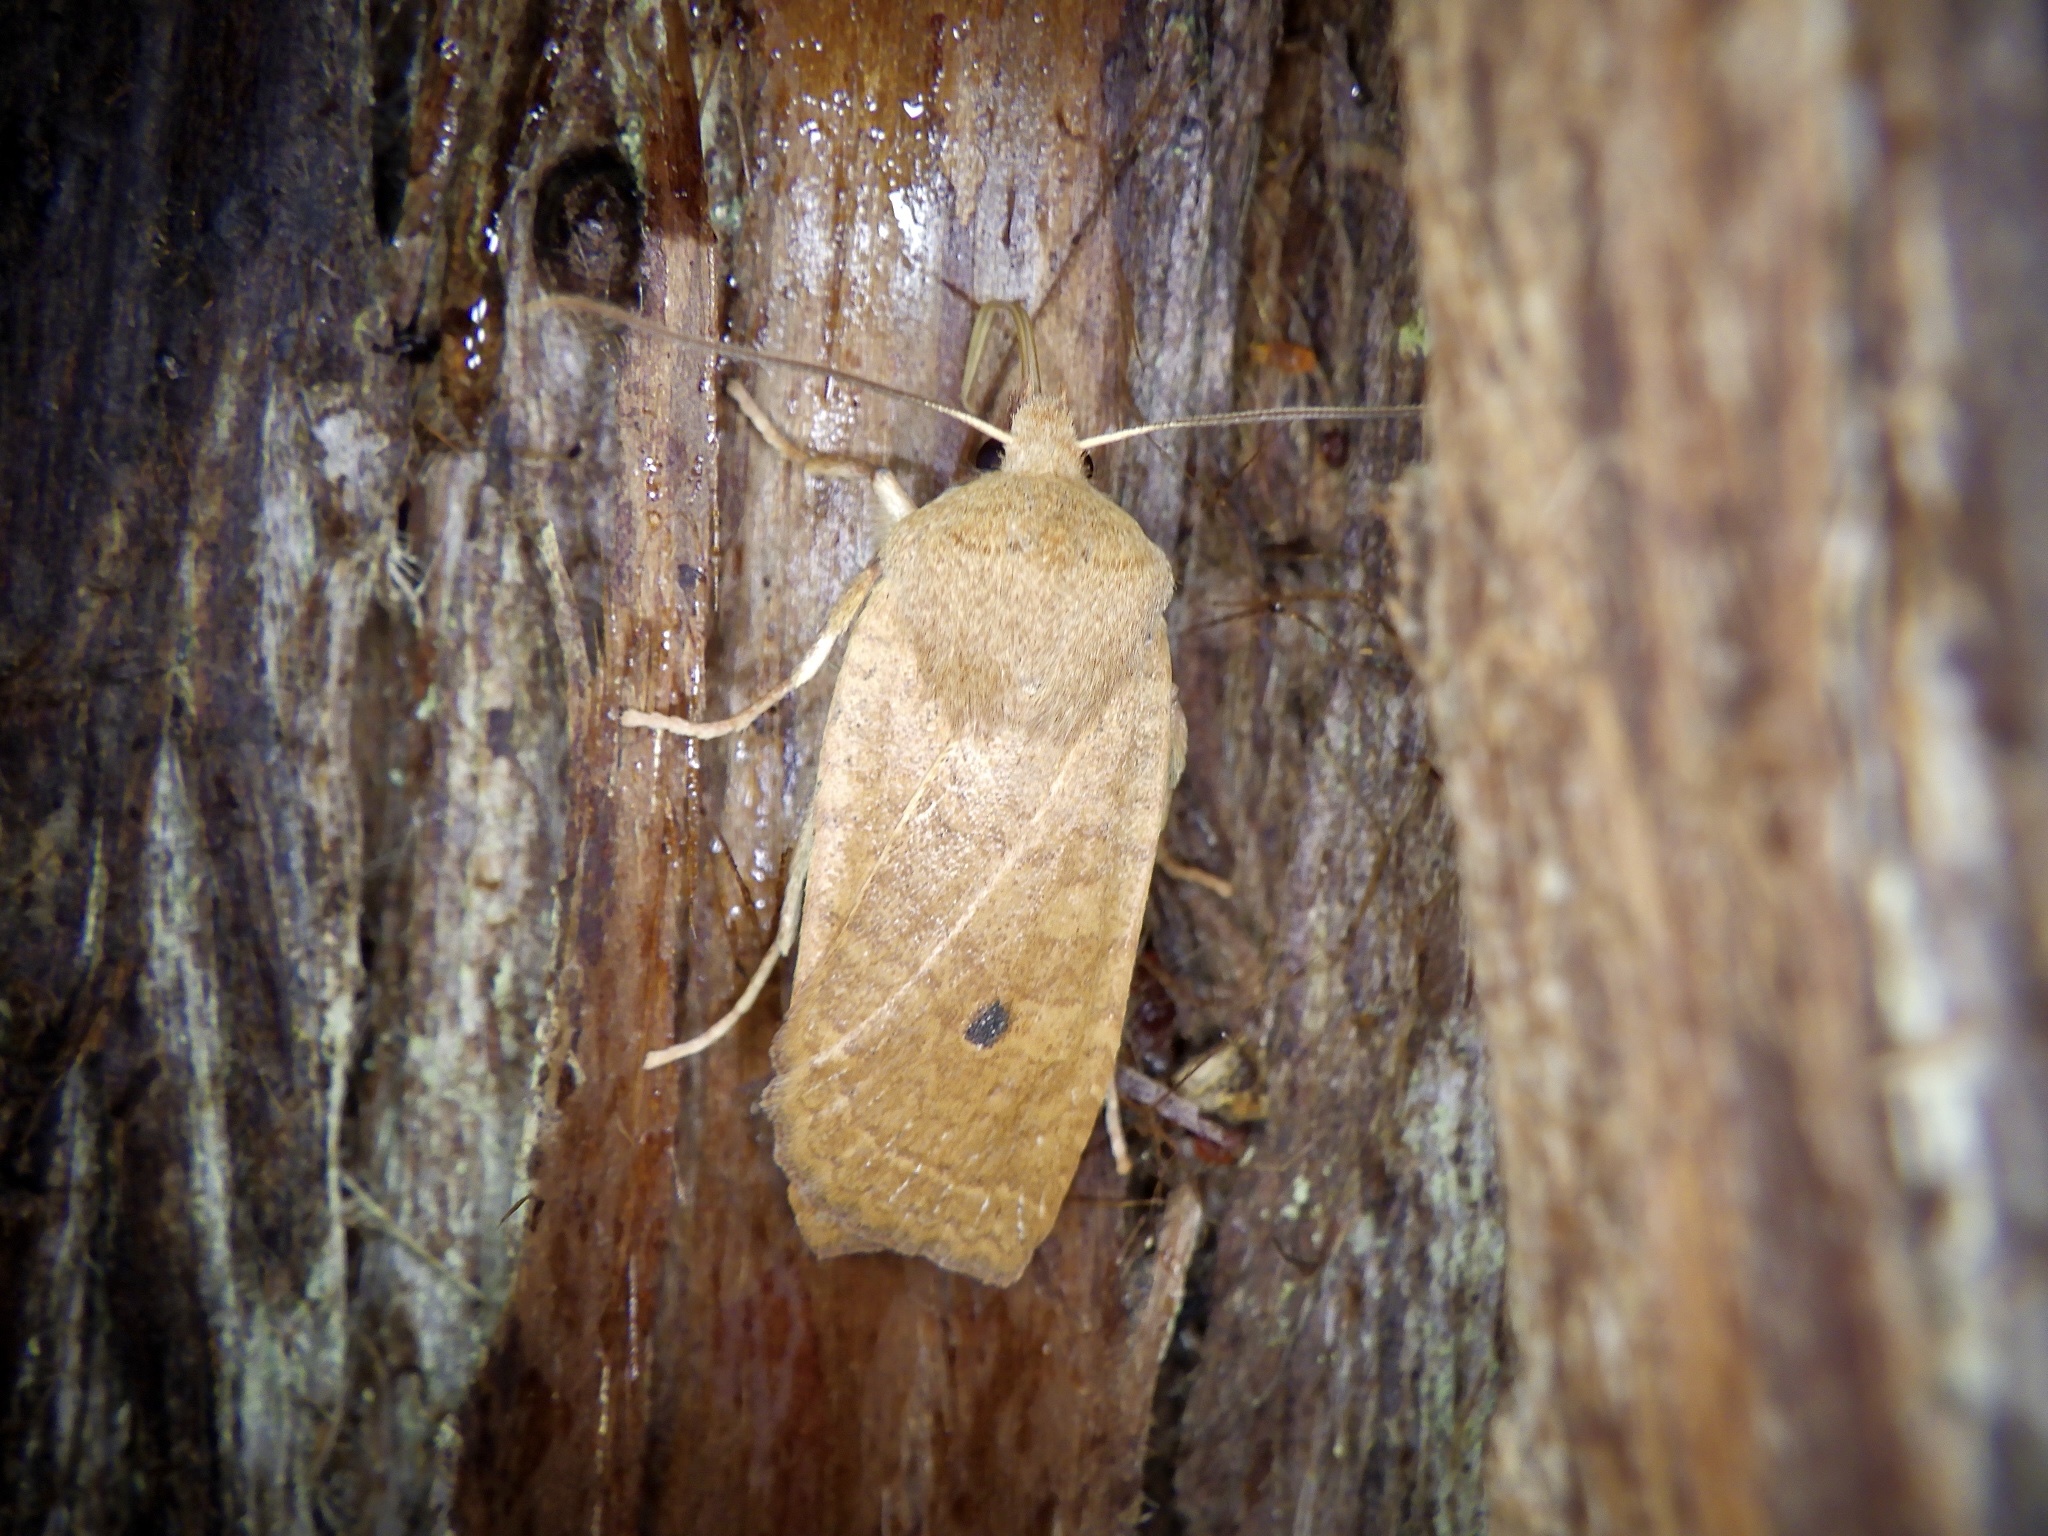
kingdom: Animalia
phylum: Arthropoda
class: Insecta
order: Lepidoptera
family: Noctuidae
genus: Conistra
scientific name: Conistra albipuncta
